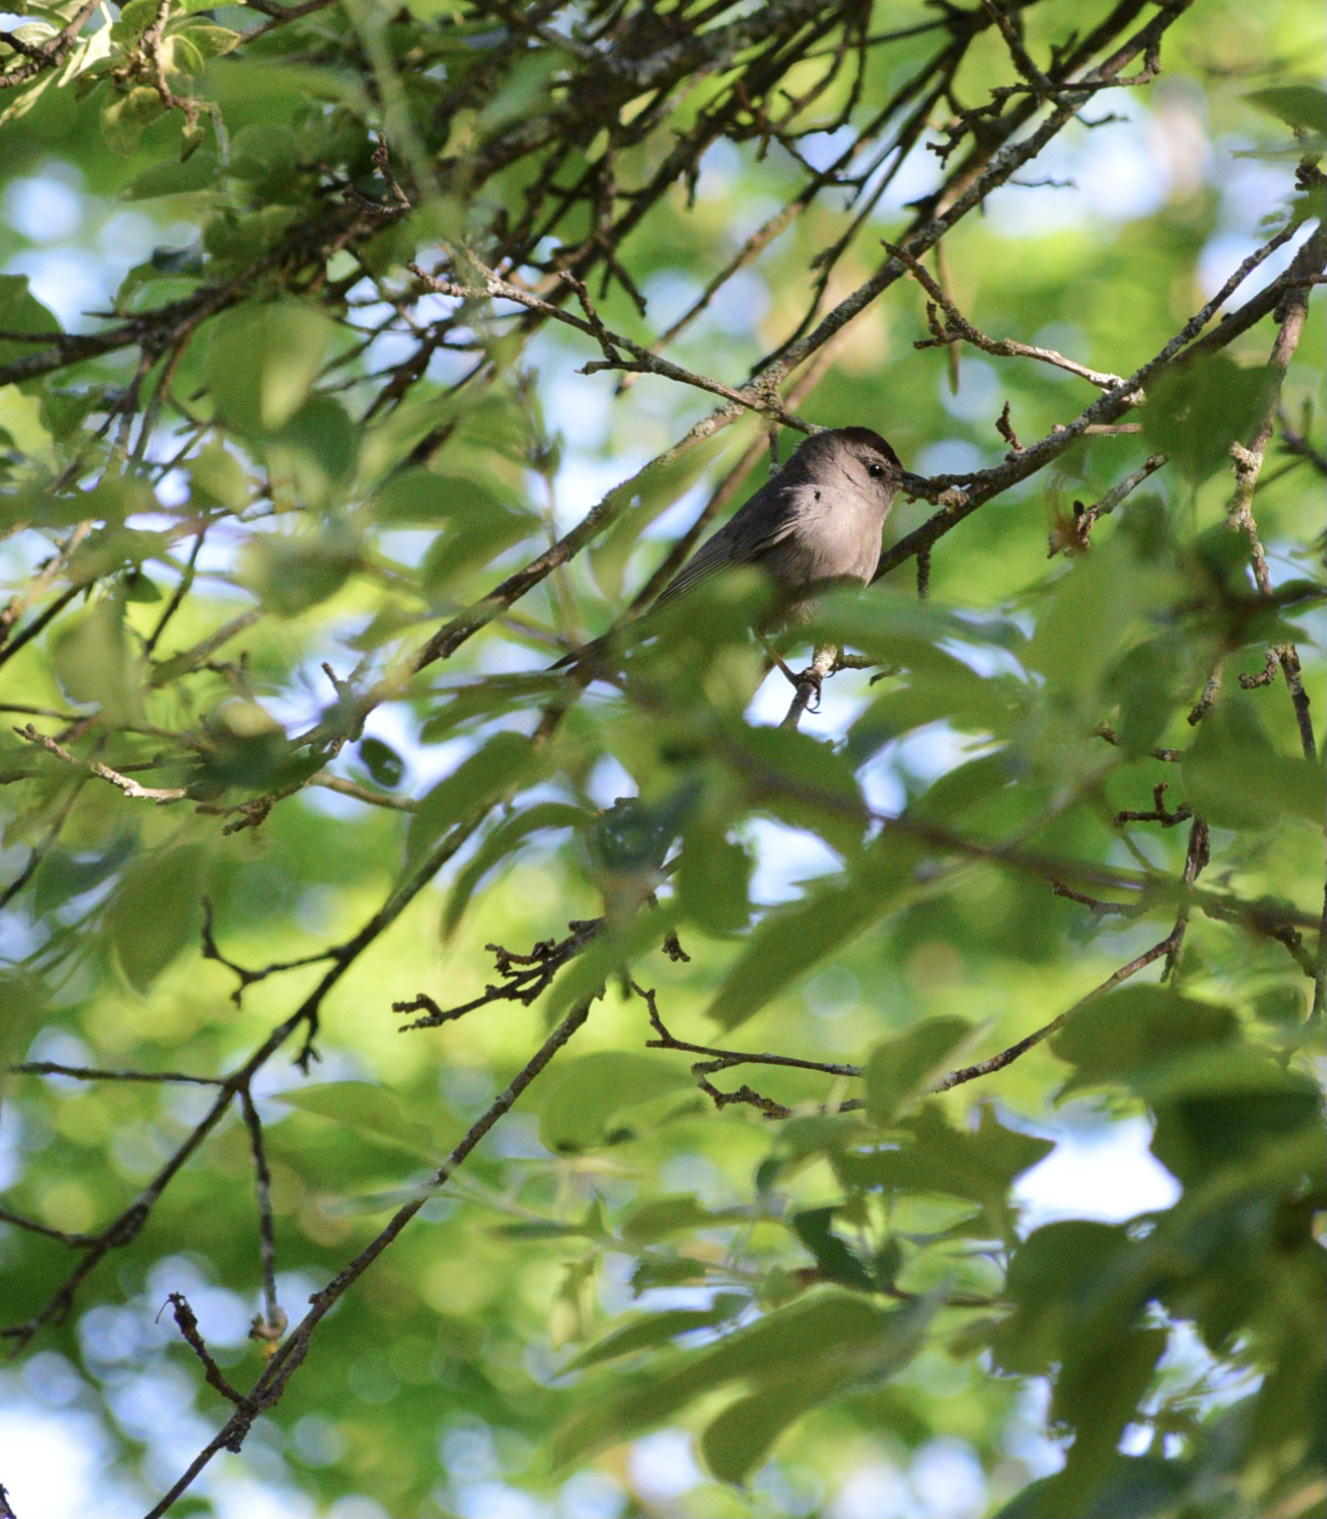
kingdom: Animalia
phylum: Chordata
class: Aves
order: Passeriformes
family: Mimidae
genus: Dumetella
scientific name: Dumetella carolinensis
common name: Gray catbird
